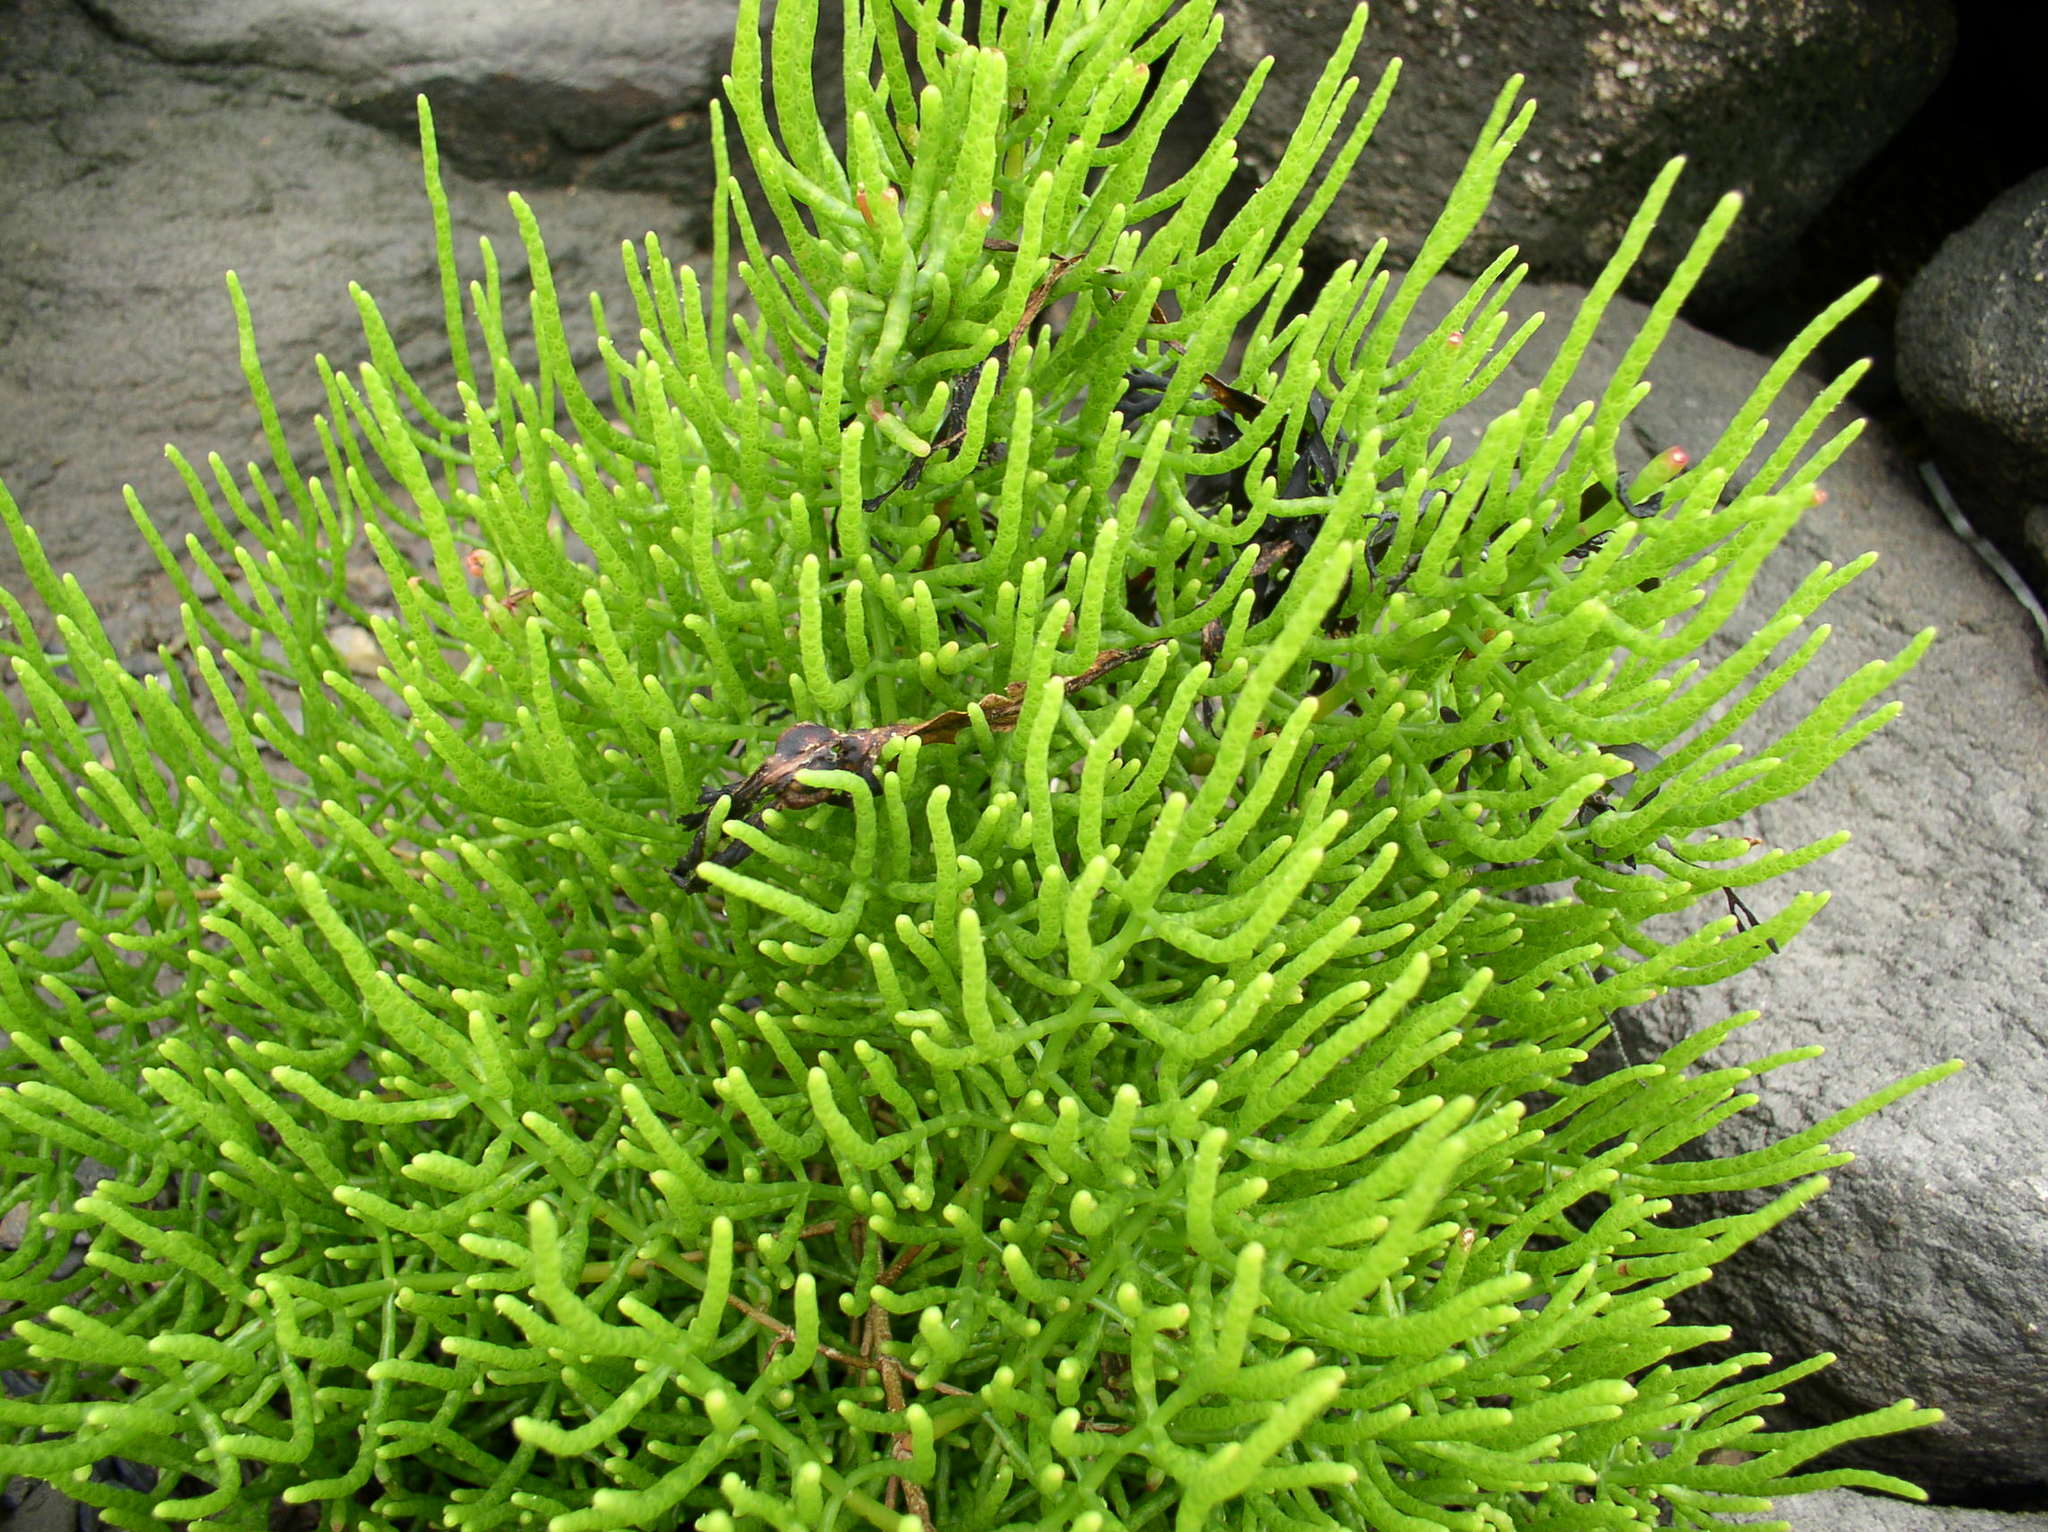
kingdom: Plantae
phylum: Tracheophyta
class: Magnoliopsida
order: Caryophyllales
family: Amaranthaceae
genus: Salicornia
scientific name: Salicornia virginica
